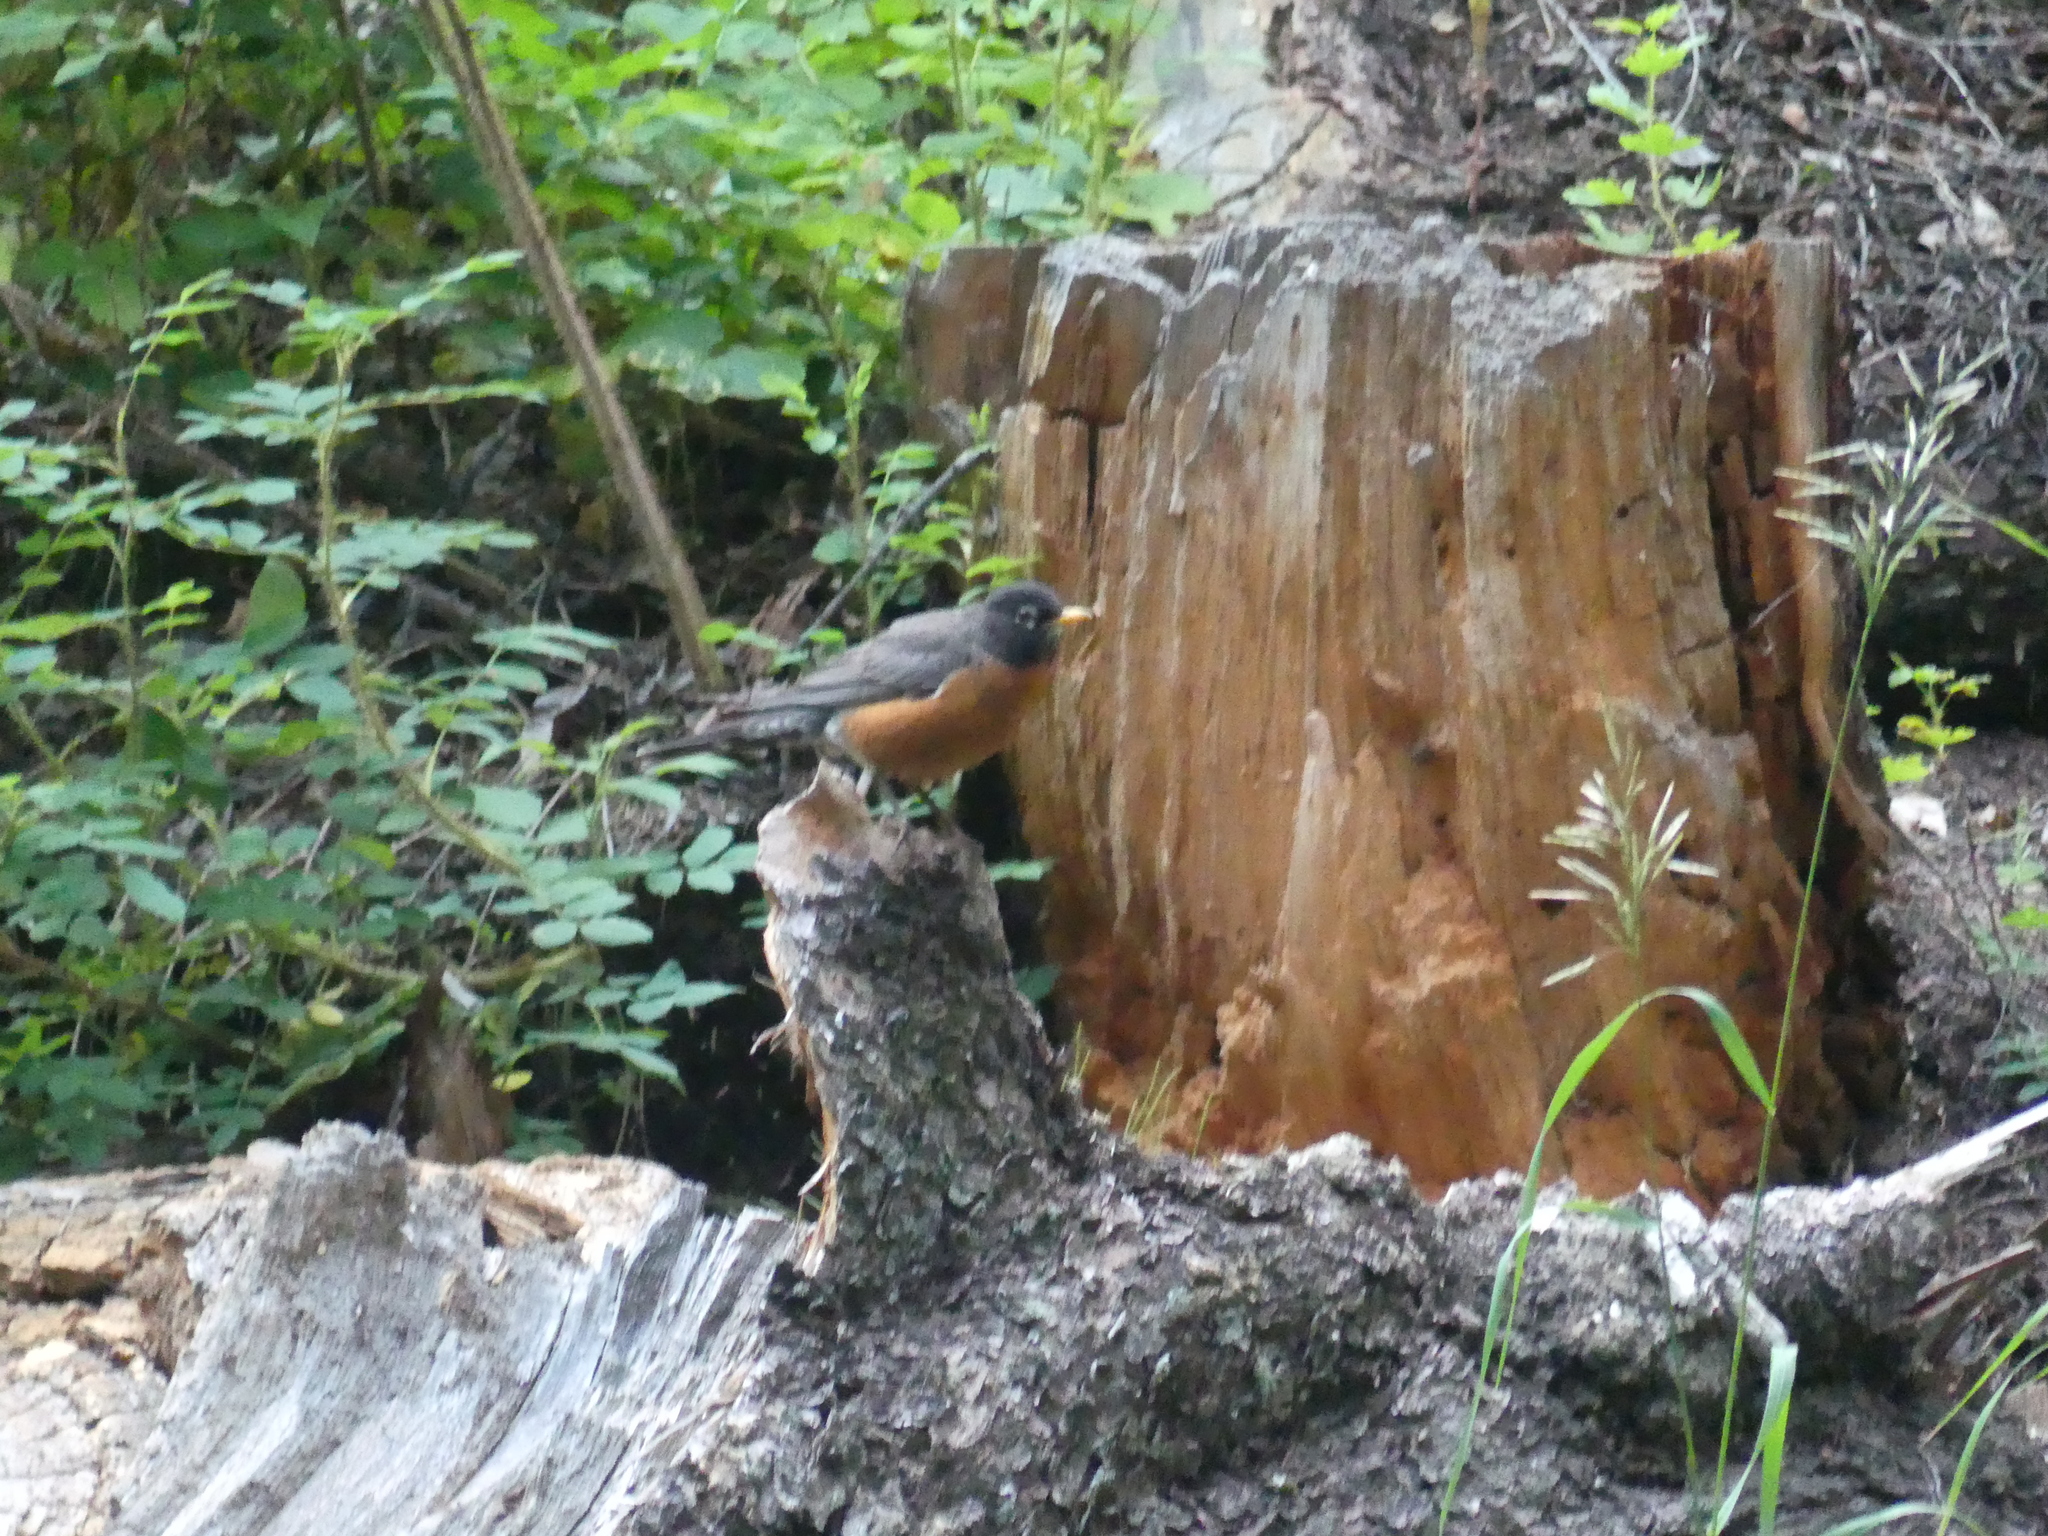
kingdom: Animalia
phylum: Chordata
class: Aves
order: Passeriformes
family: Turdidae
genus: Turdus
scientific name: Turdus migratorius
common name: American robin
